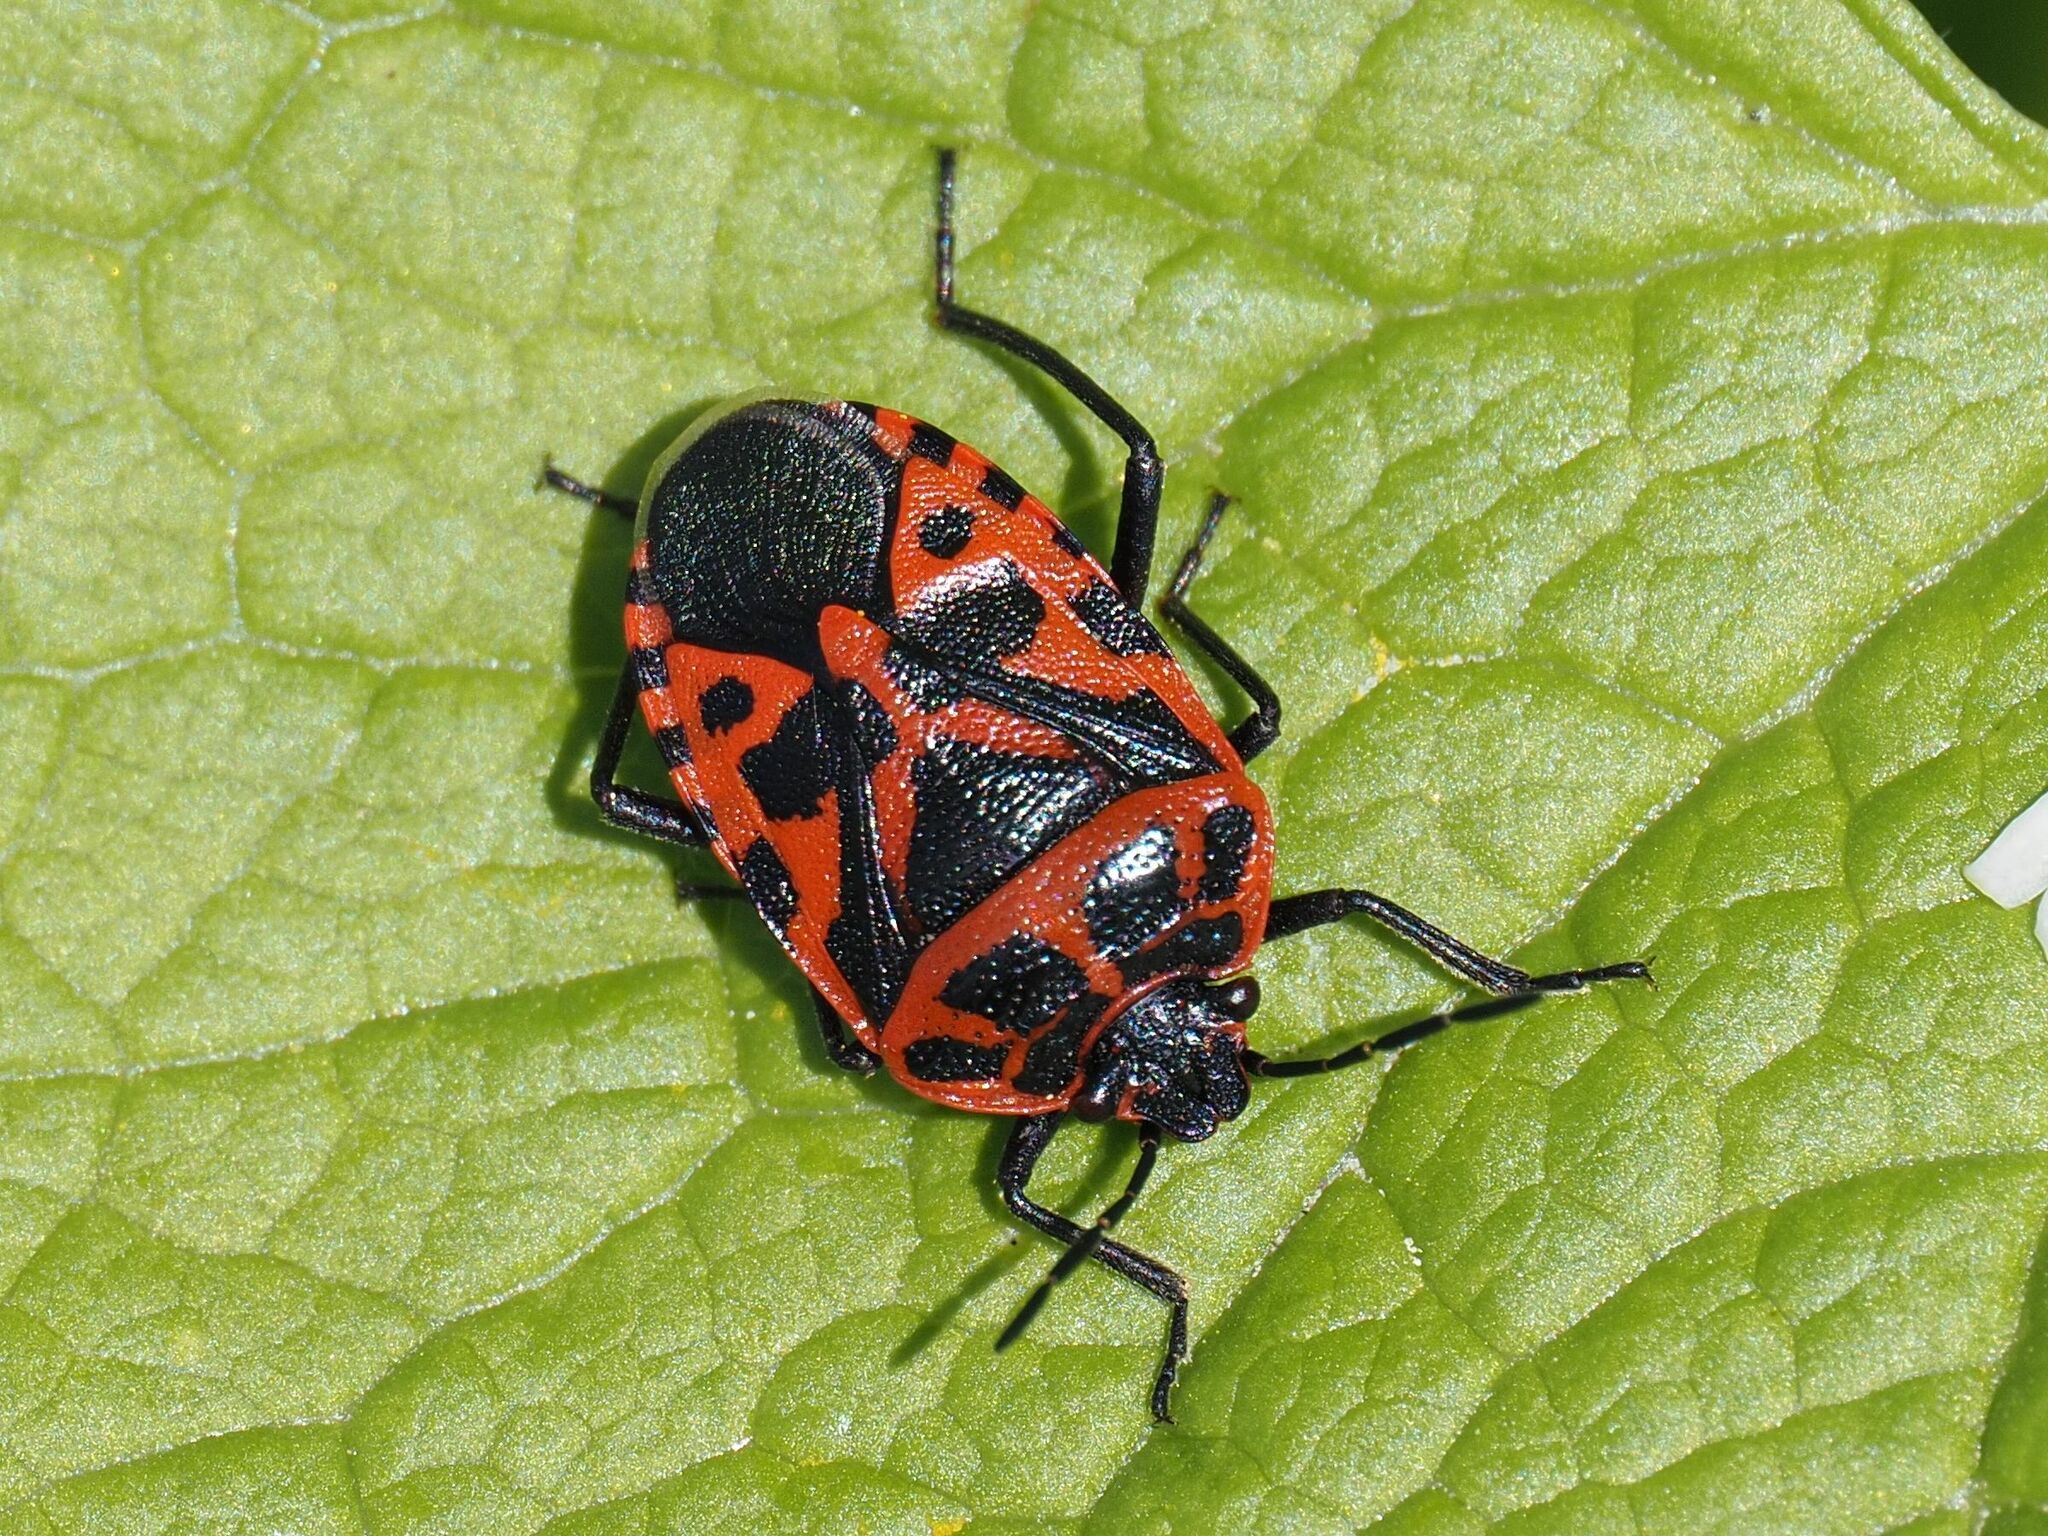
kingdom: Animalia
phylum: Arthropoda
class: Insecta
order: Hemiptera
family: Pentatomidae
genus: Eurydema
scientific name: Eurydema ventralis
